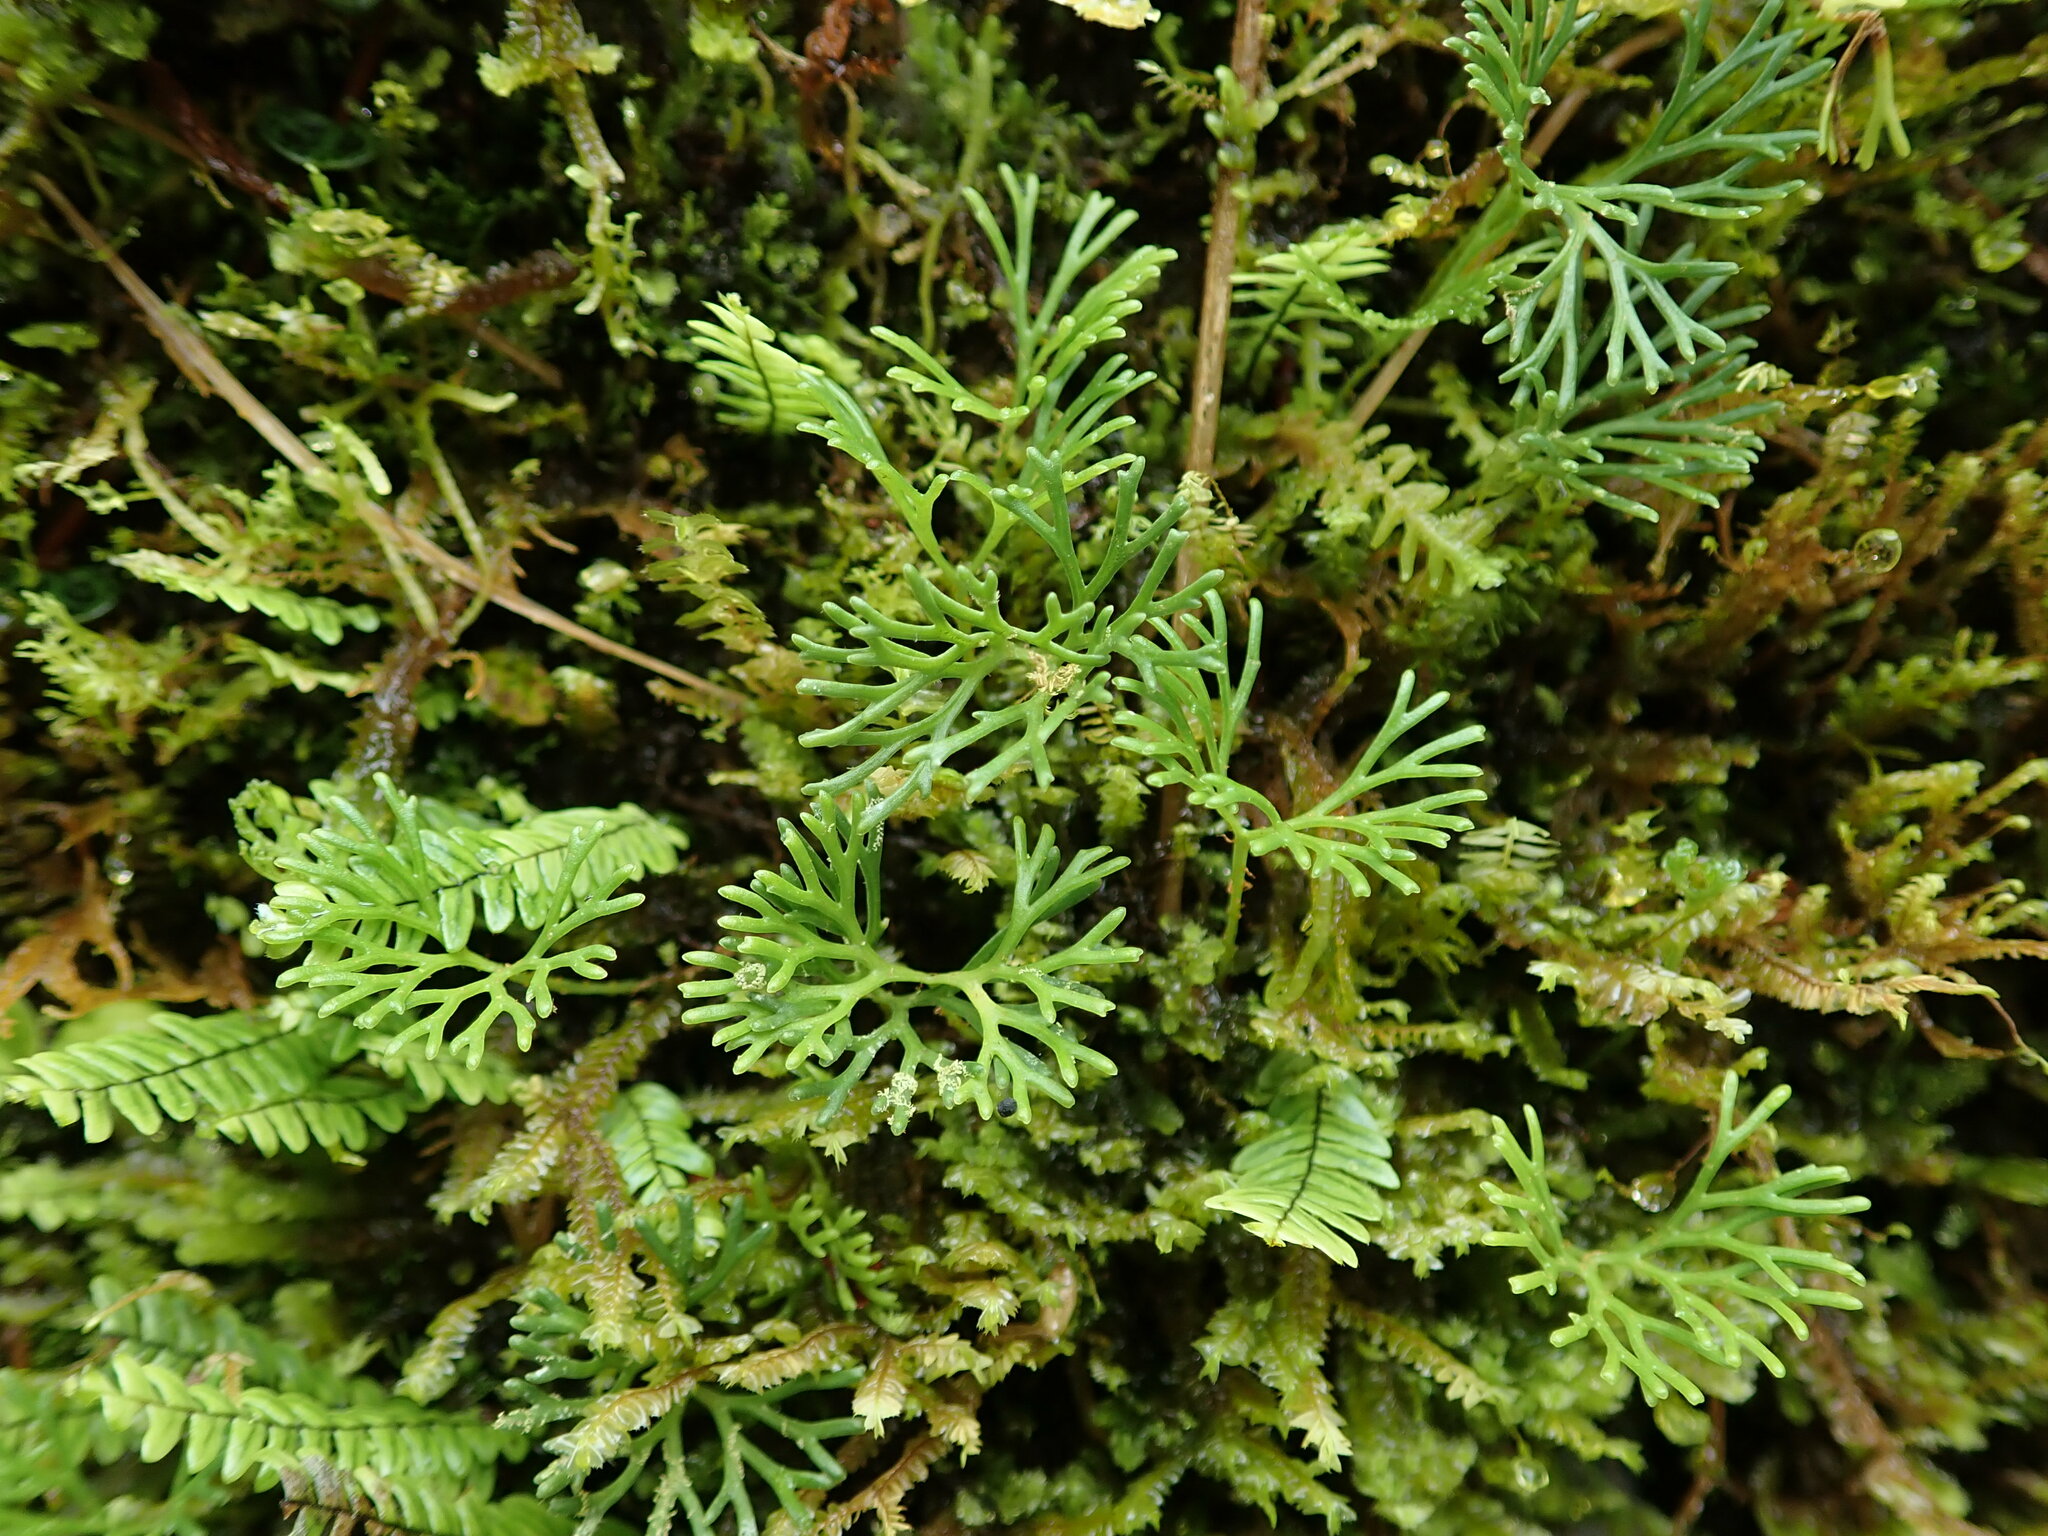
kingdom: Plantae
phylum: Tracheophyta
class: Polypodiopsida
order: Polypodiales
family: Dryopteridaceae
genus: Elaphoglossum
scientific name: Elaphoglossum peltatum
